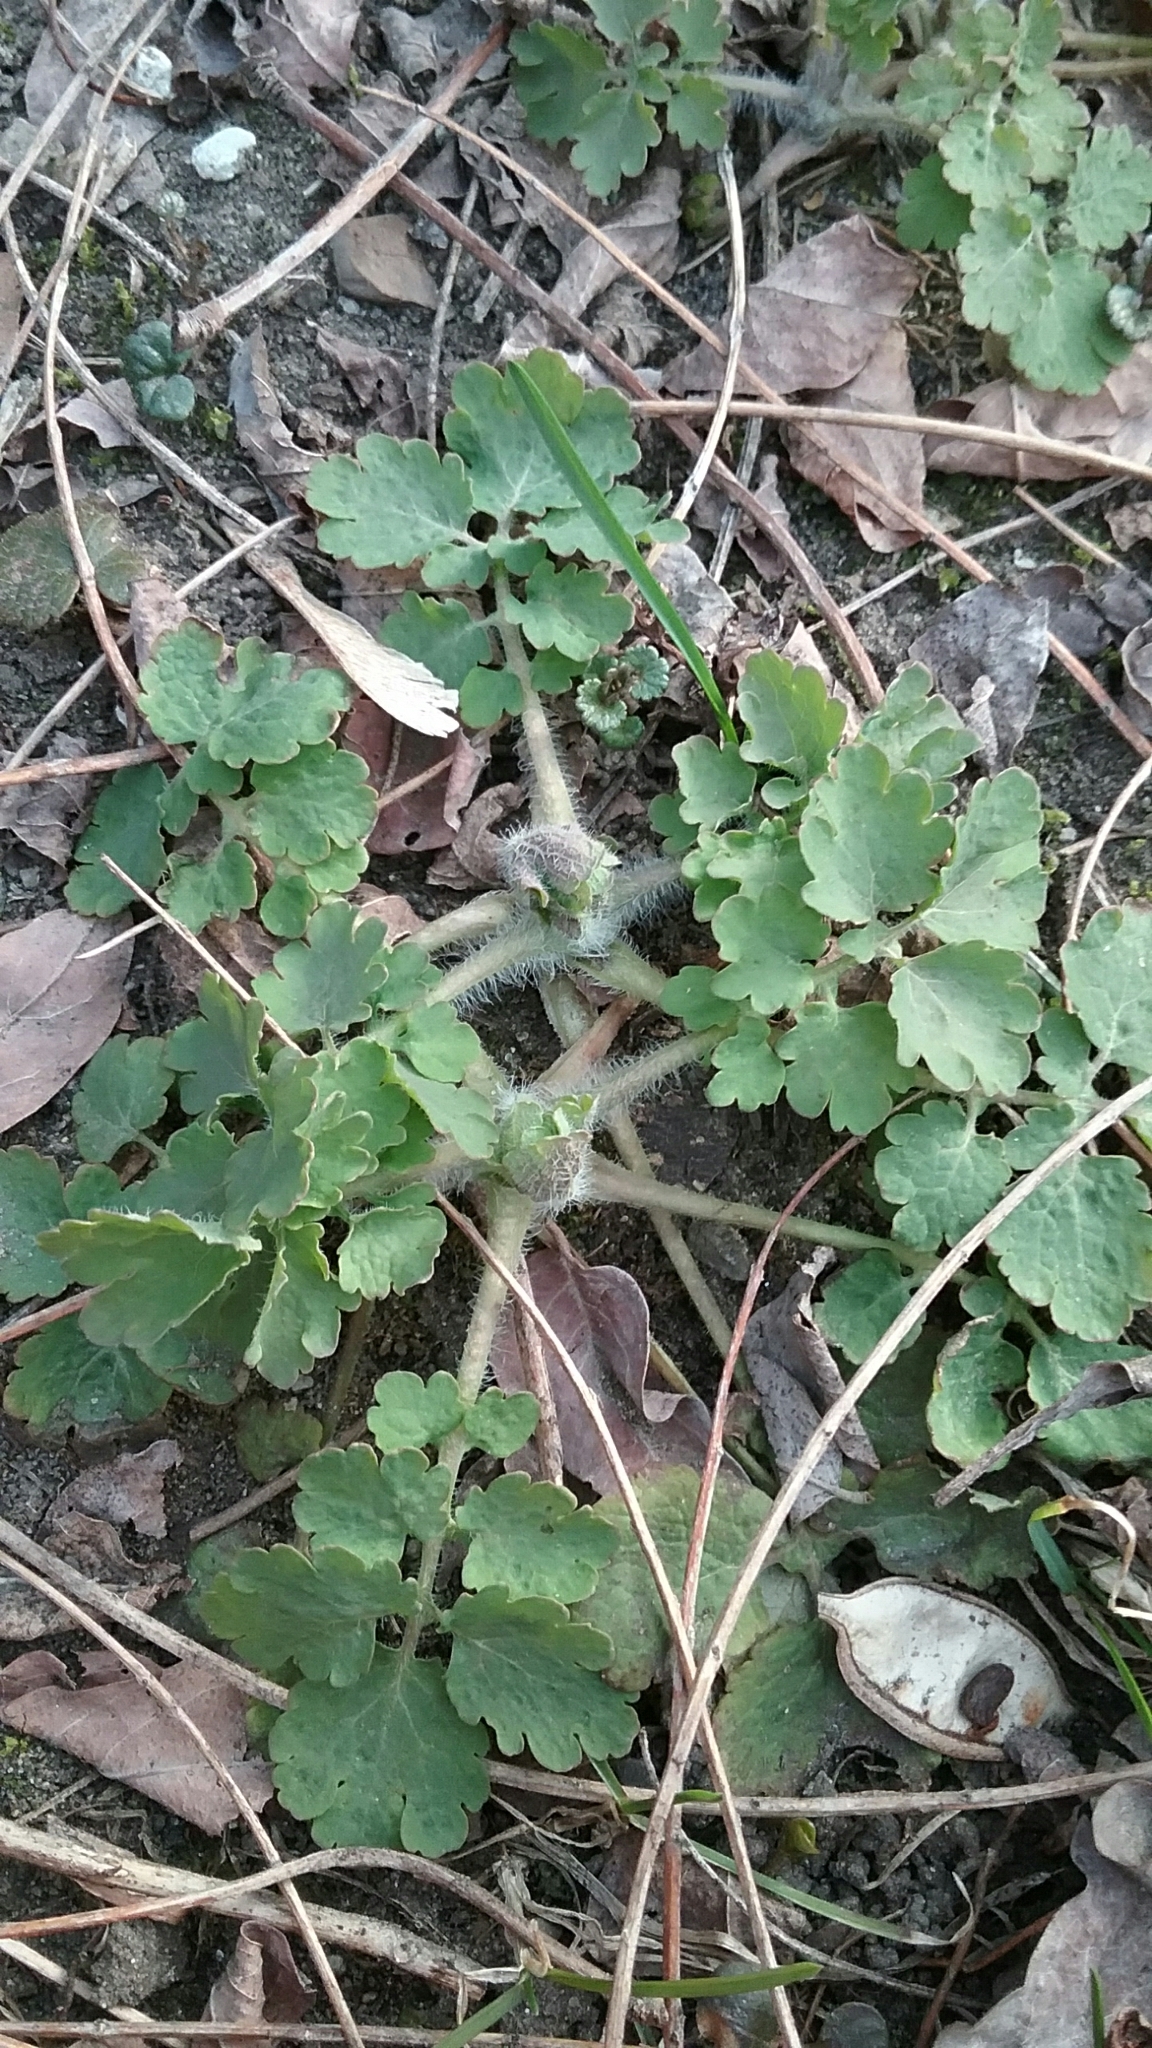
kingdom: Plantae
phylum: Tracheophyta
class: Magnoliopsida
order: Ranunculales
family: Papaveraceae
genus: Chelidonium
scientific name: Chelidonium majus
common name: Greater celandine
